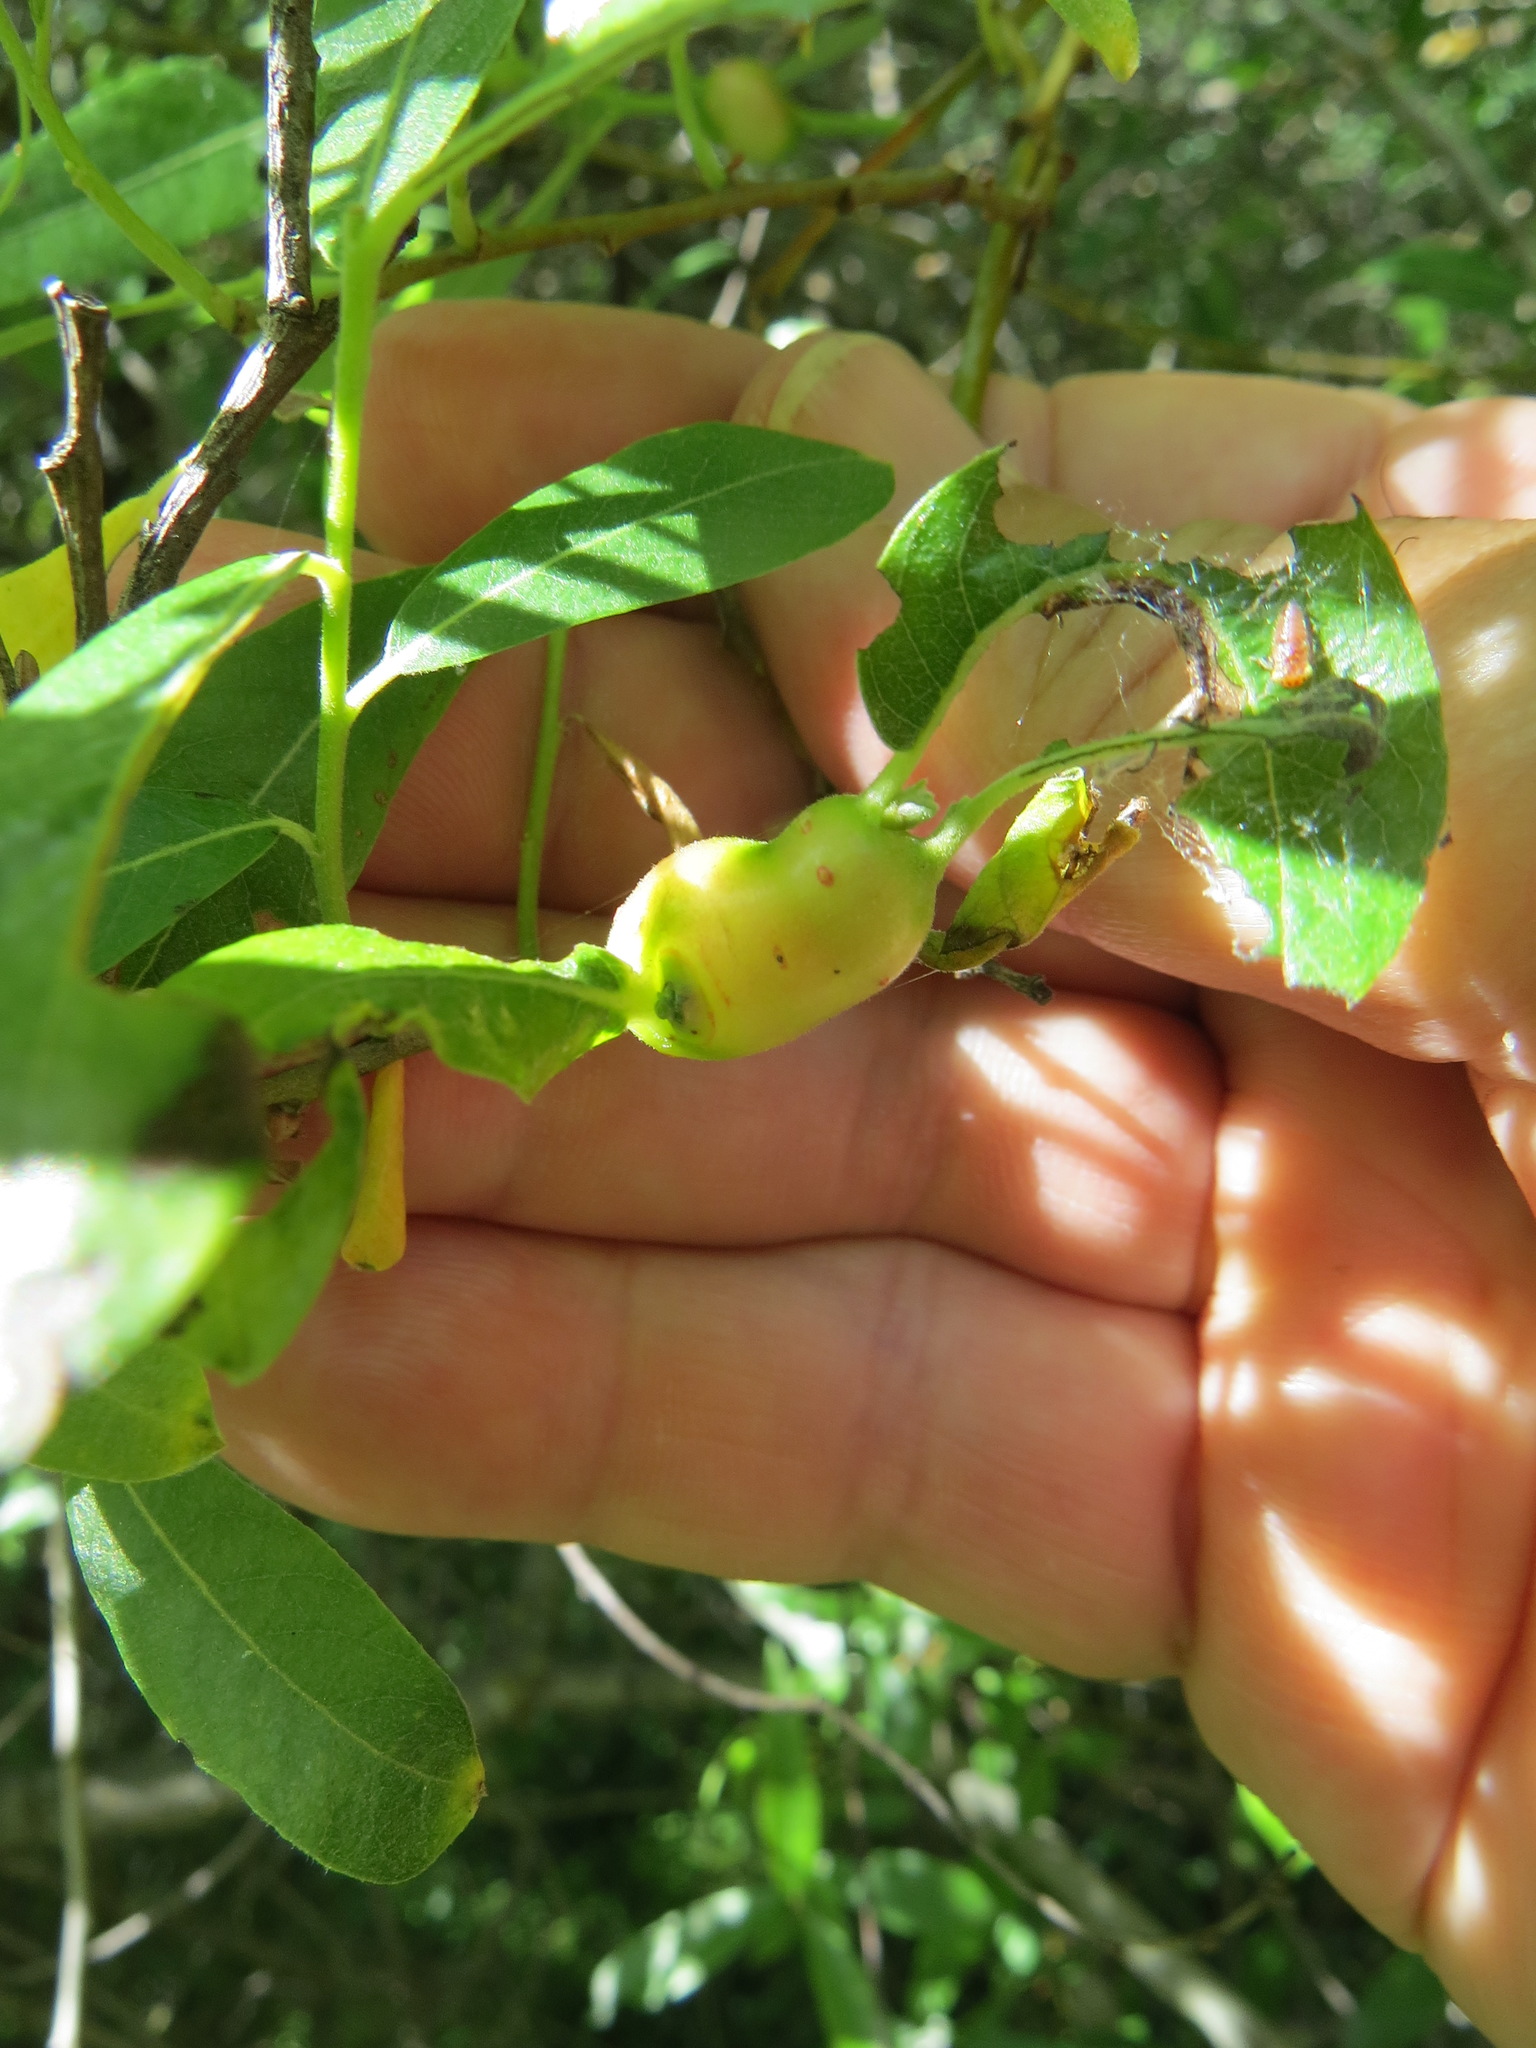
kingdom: Animalia
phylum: Arthropoda
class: Insecta
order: Diptera
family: Cecidomyiidae
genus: Rabdophaga
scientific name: Rabdophaga salicisbatatas
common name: Potato gall midge
